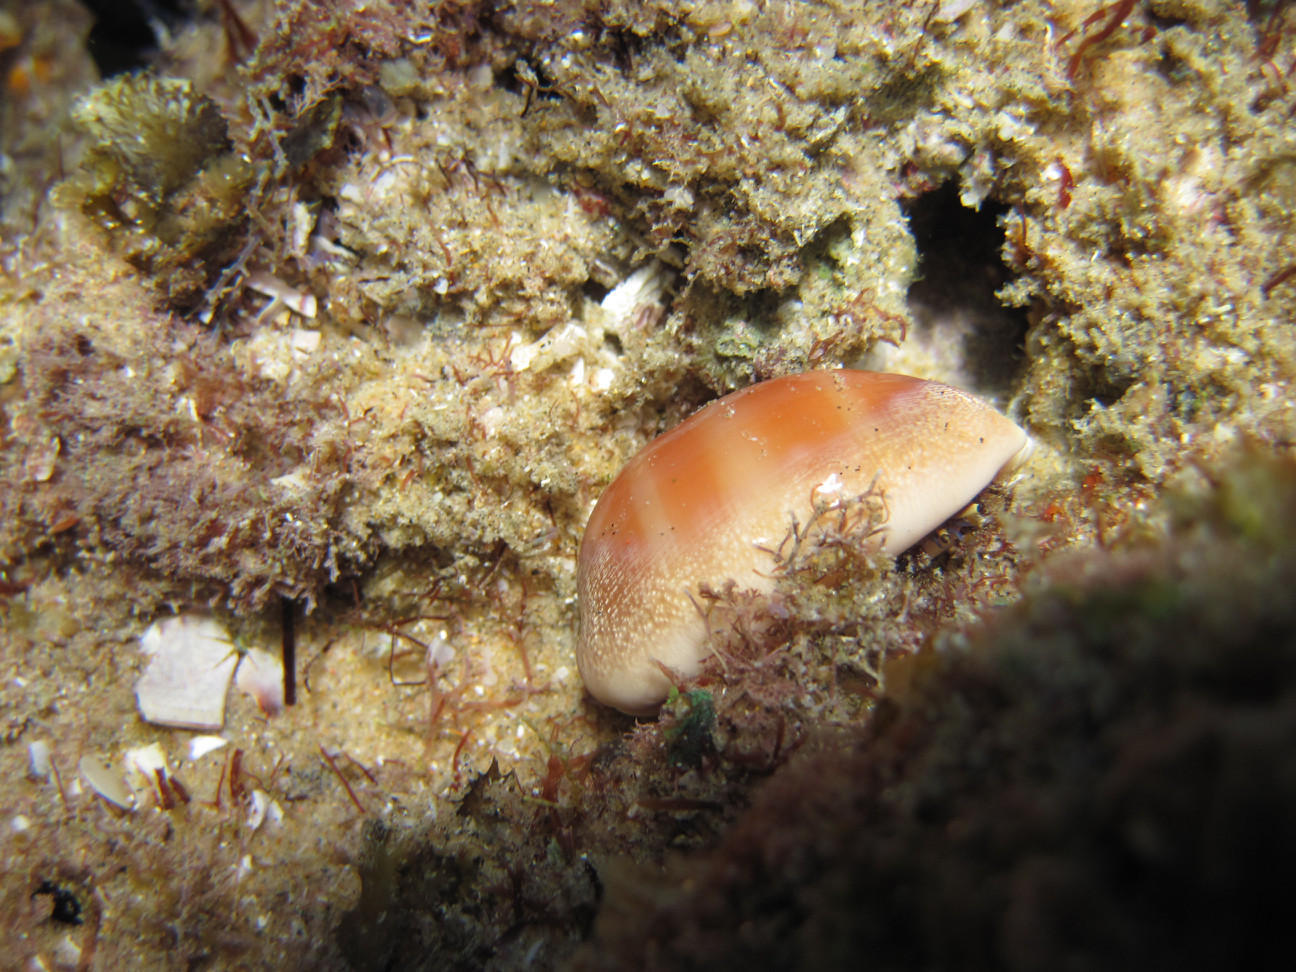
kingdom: Animalia
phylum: Mollusca
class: Gastropoda
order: Littorinimorpha
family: Cypraeidae
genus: Lyncina
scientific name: Lyncina carneola
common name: Purple-mouthed cowry
